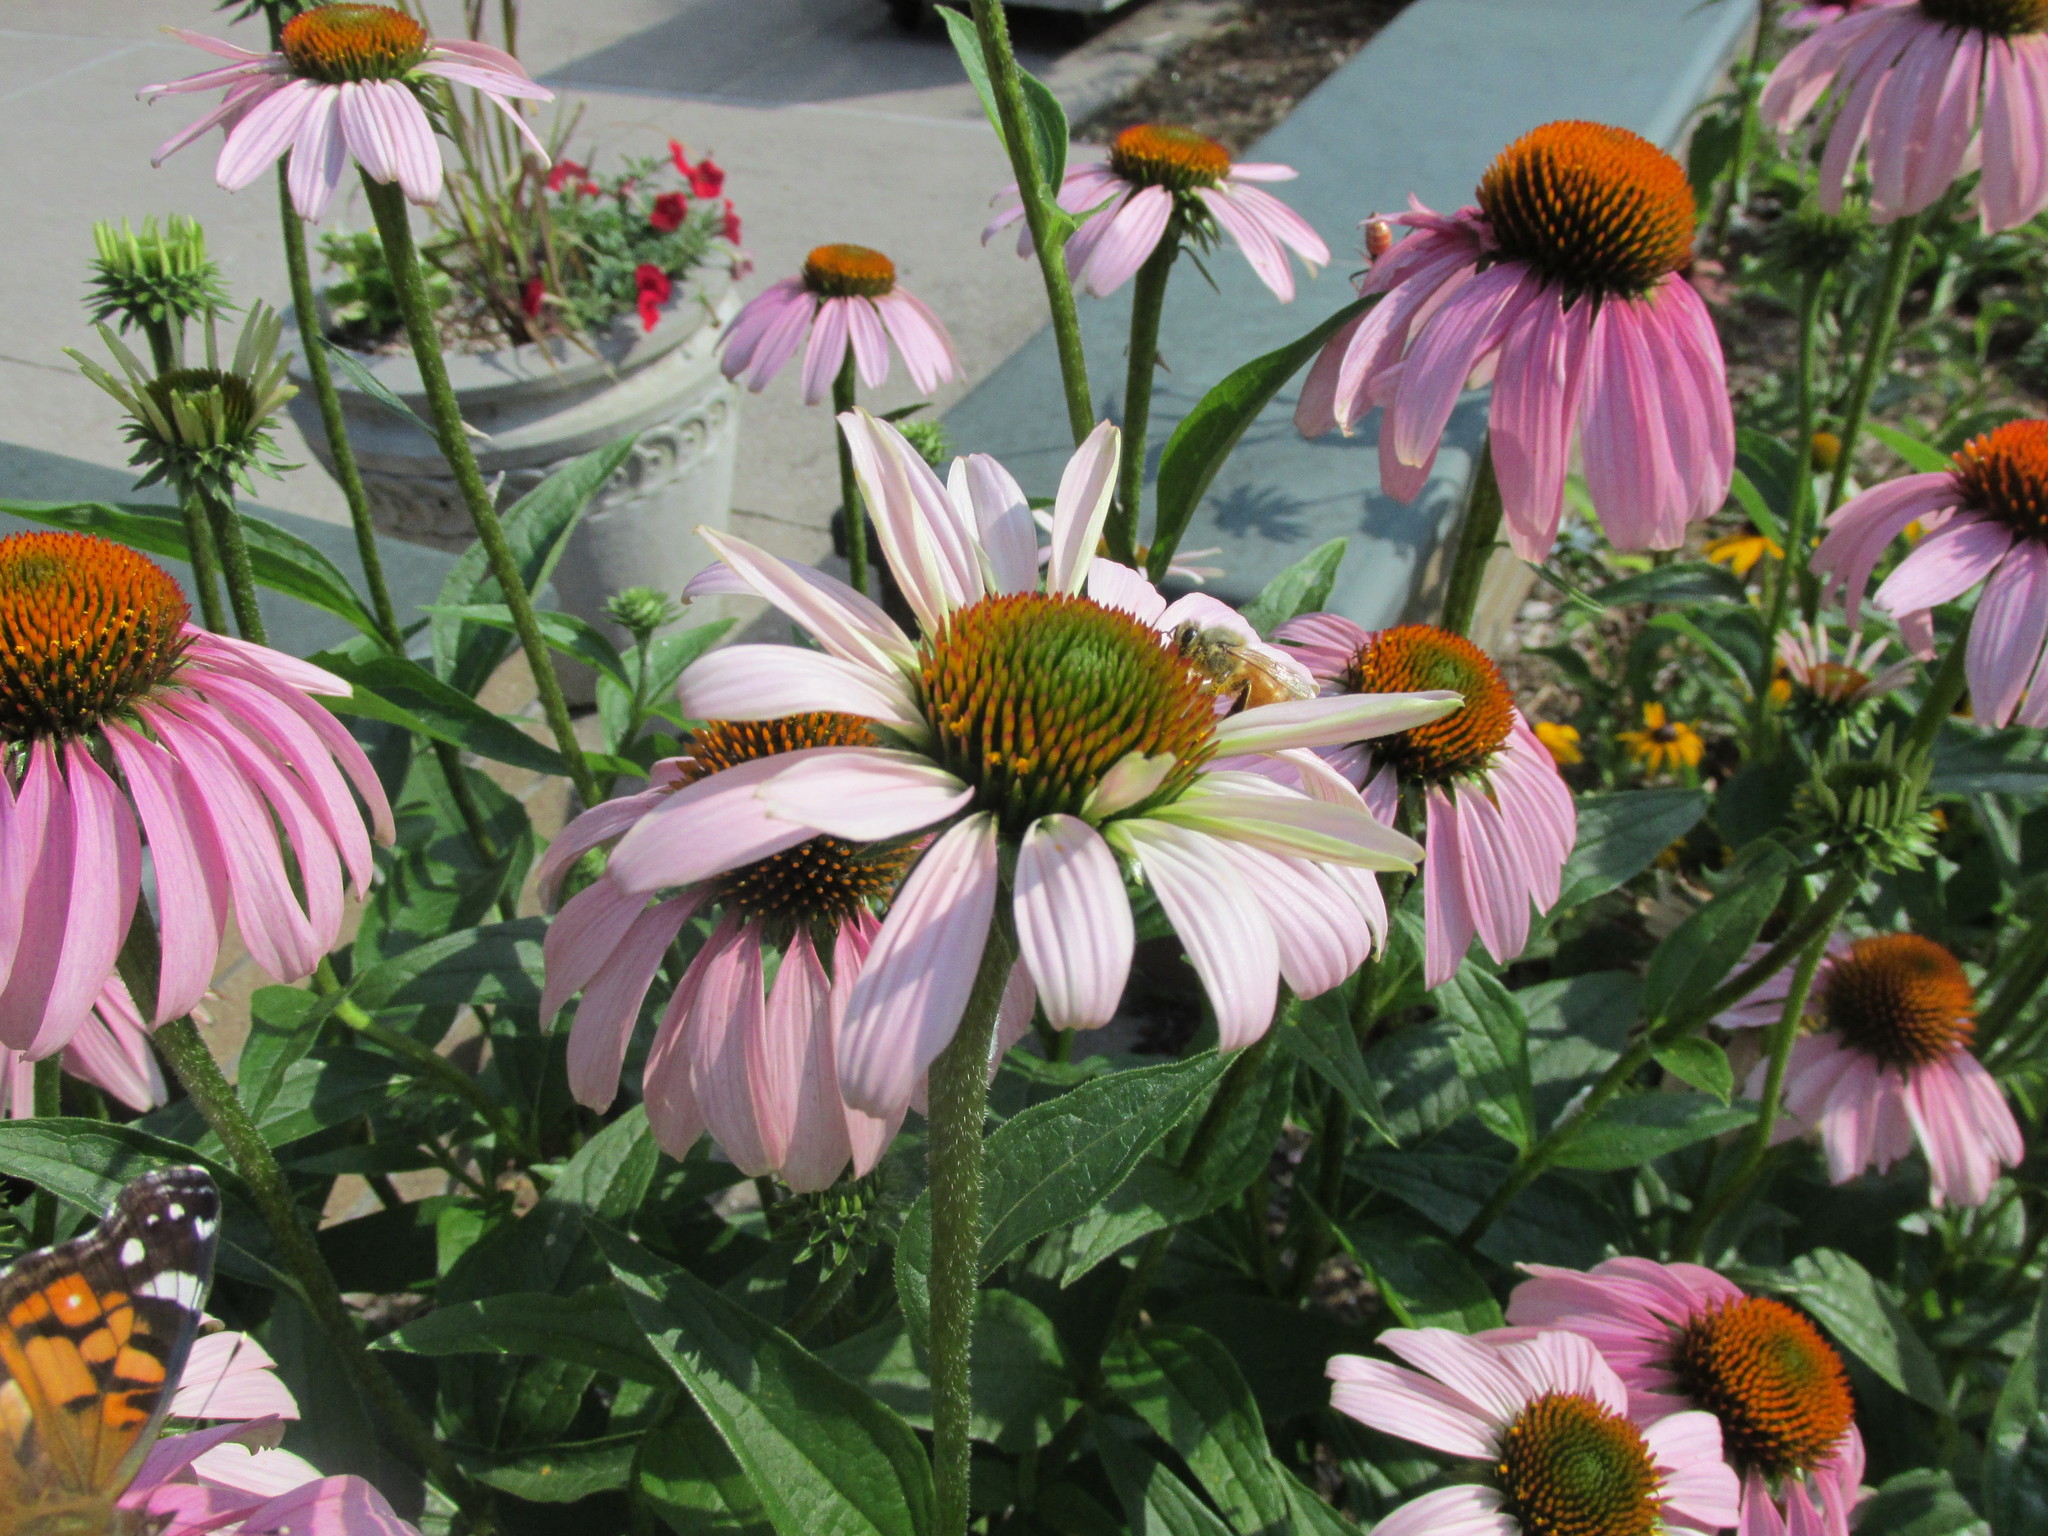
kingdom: Animalia
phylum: Arthropoda
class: Insecta
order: Hymenoptera
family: Apidae
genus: Apis
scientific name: Apis mellifera
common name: Honey bee
